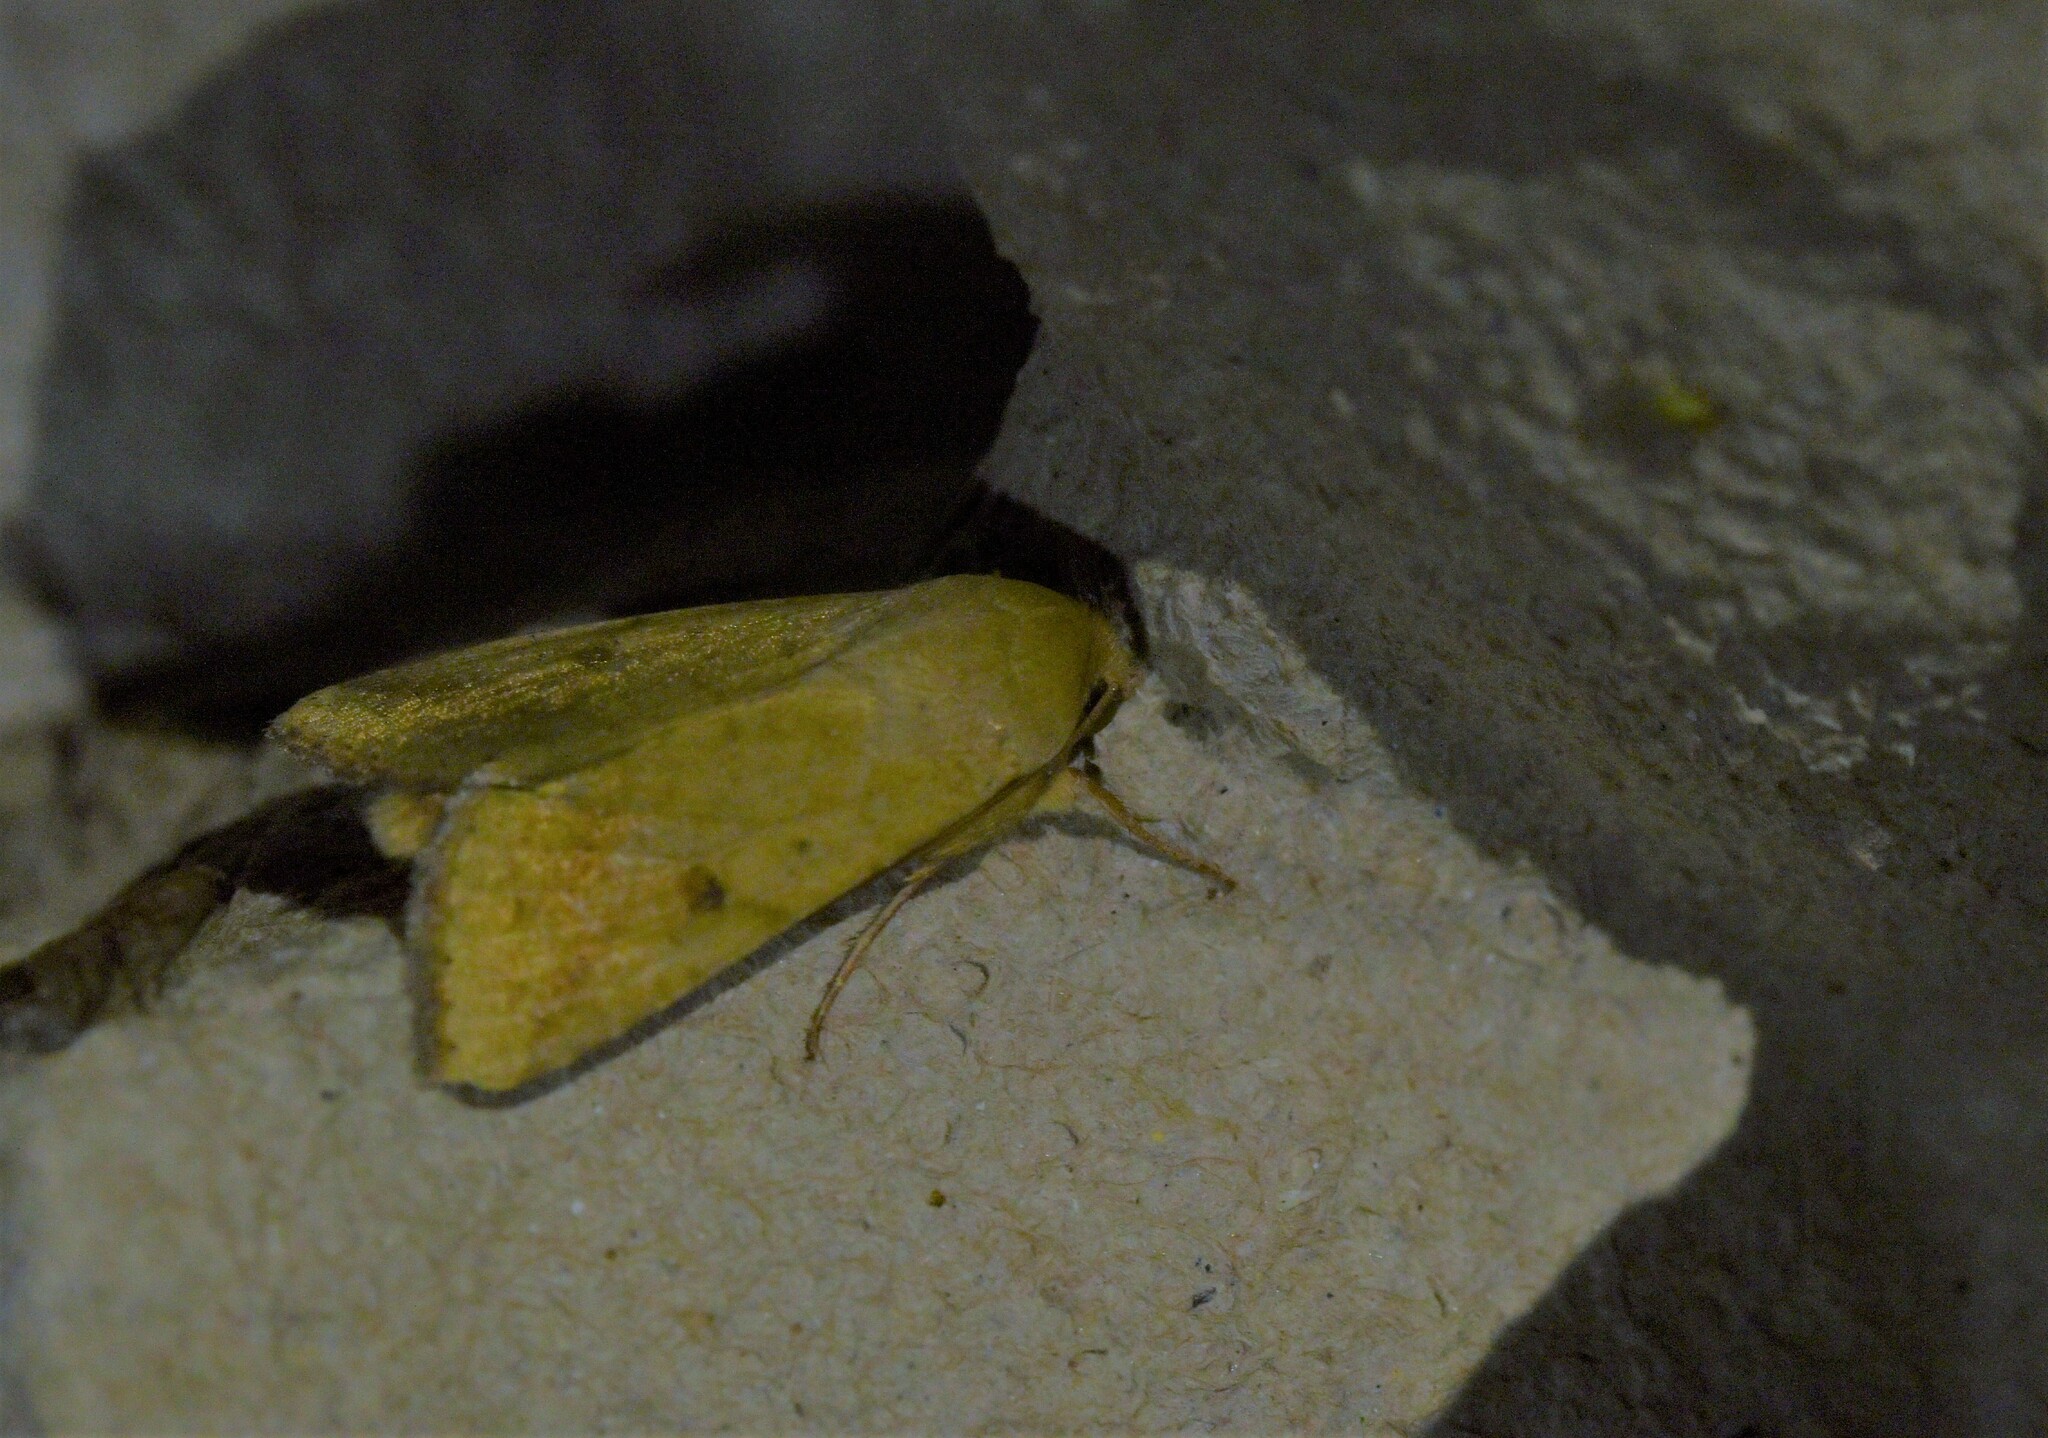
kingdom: Animalia
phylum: Arthropoda
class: Insecta
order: Lepidoptera
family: Noctuidae
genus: Helicoverpa
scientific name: Helicoverpa armigera
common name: Cotton bollworm
